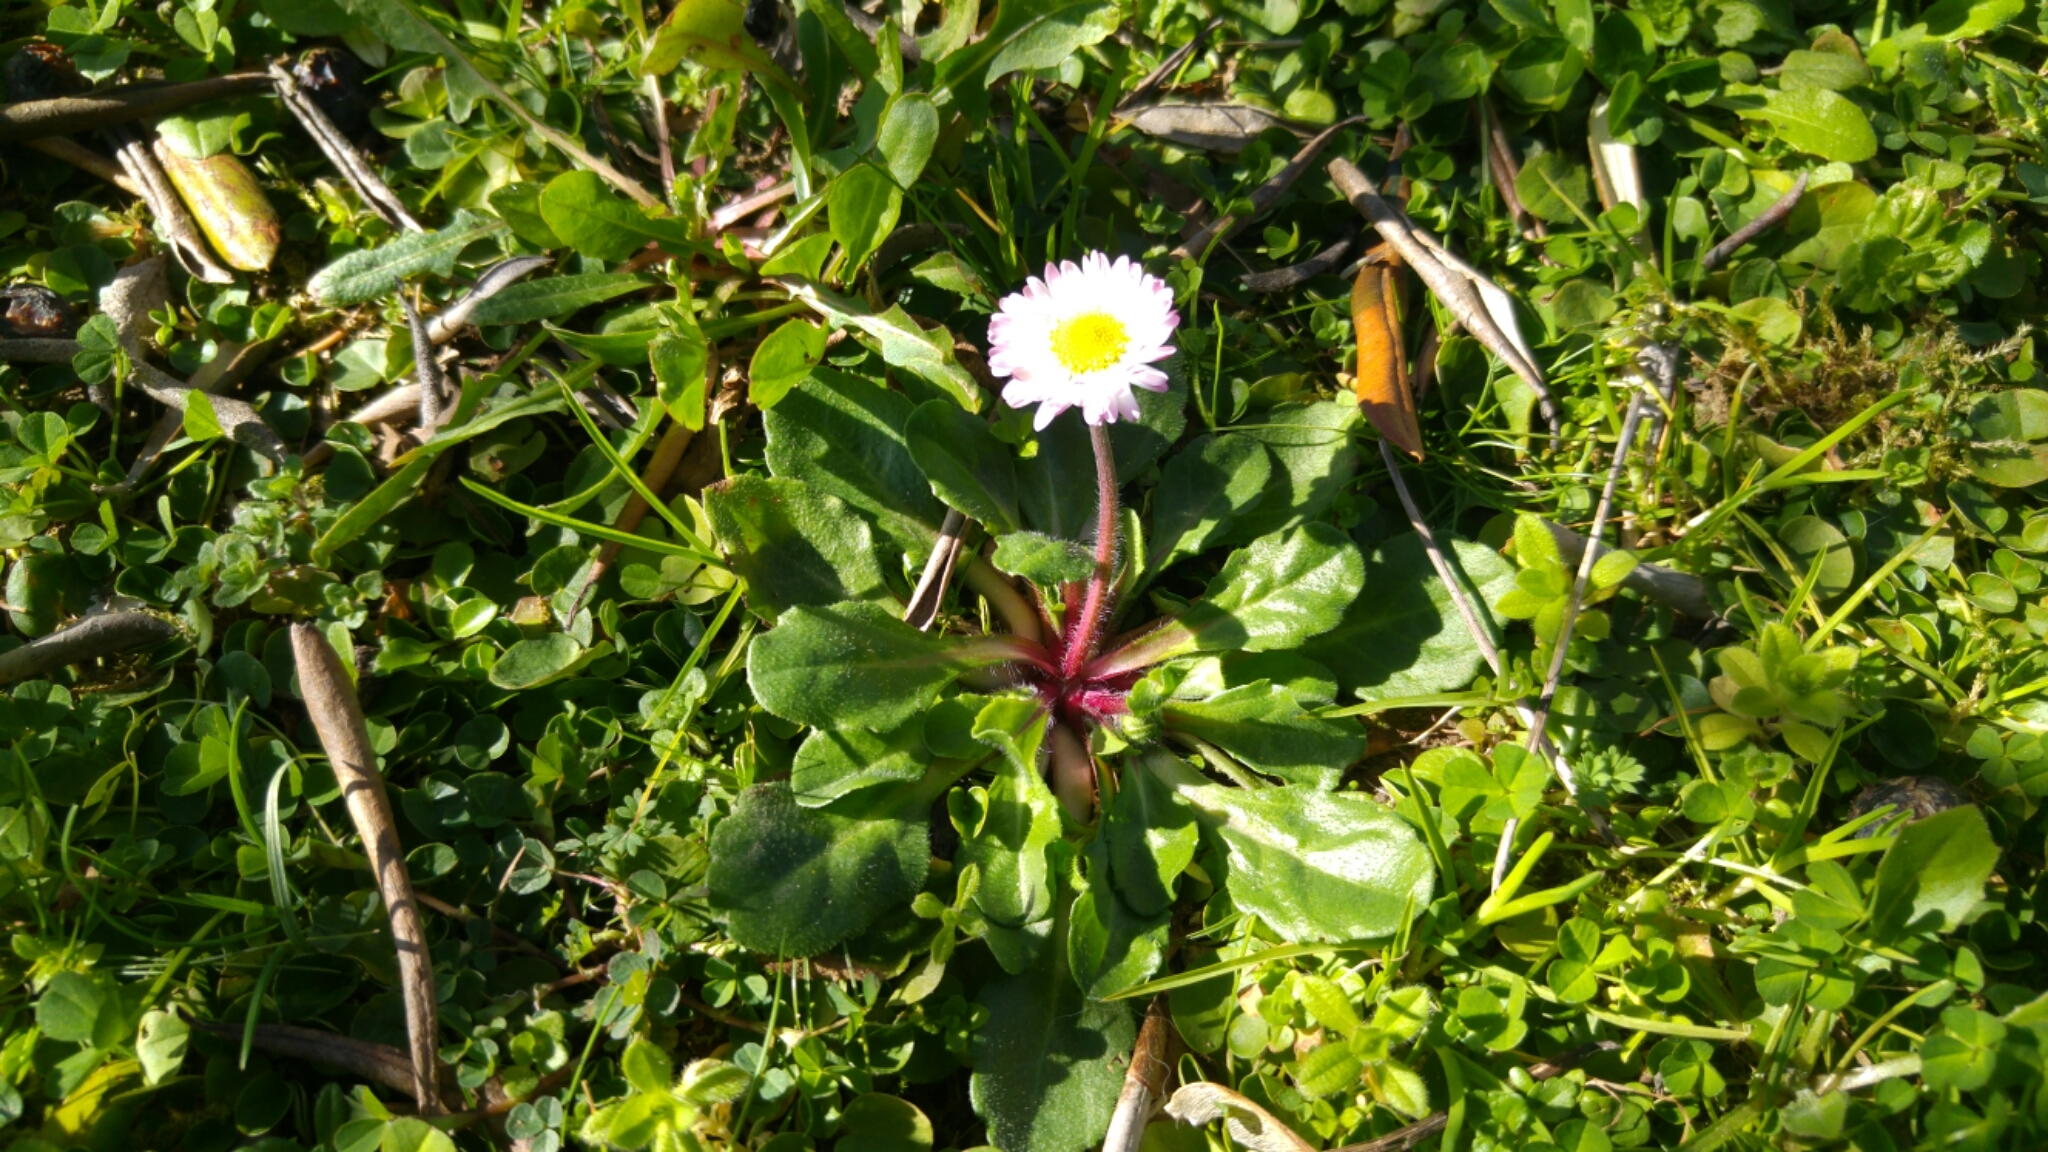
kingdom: Plantae
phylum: Tracheophyta
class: Magnoliopsida
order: Asterales
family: Asteraceae
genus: Bellis
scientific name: Bellis perennis
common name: Lawndaisy
